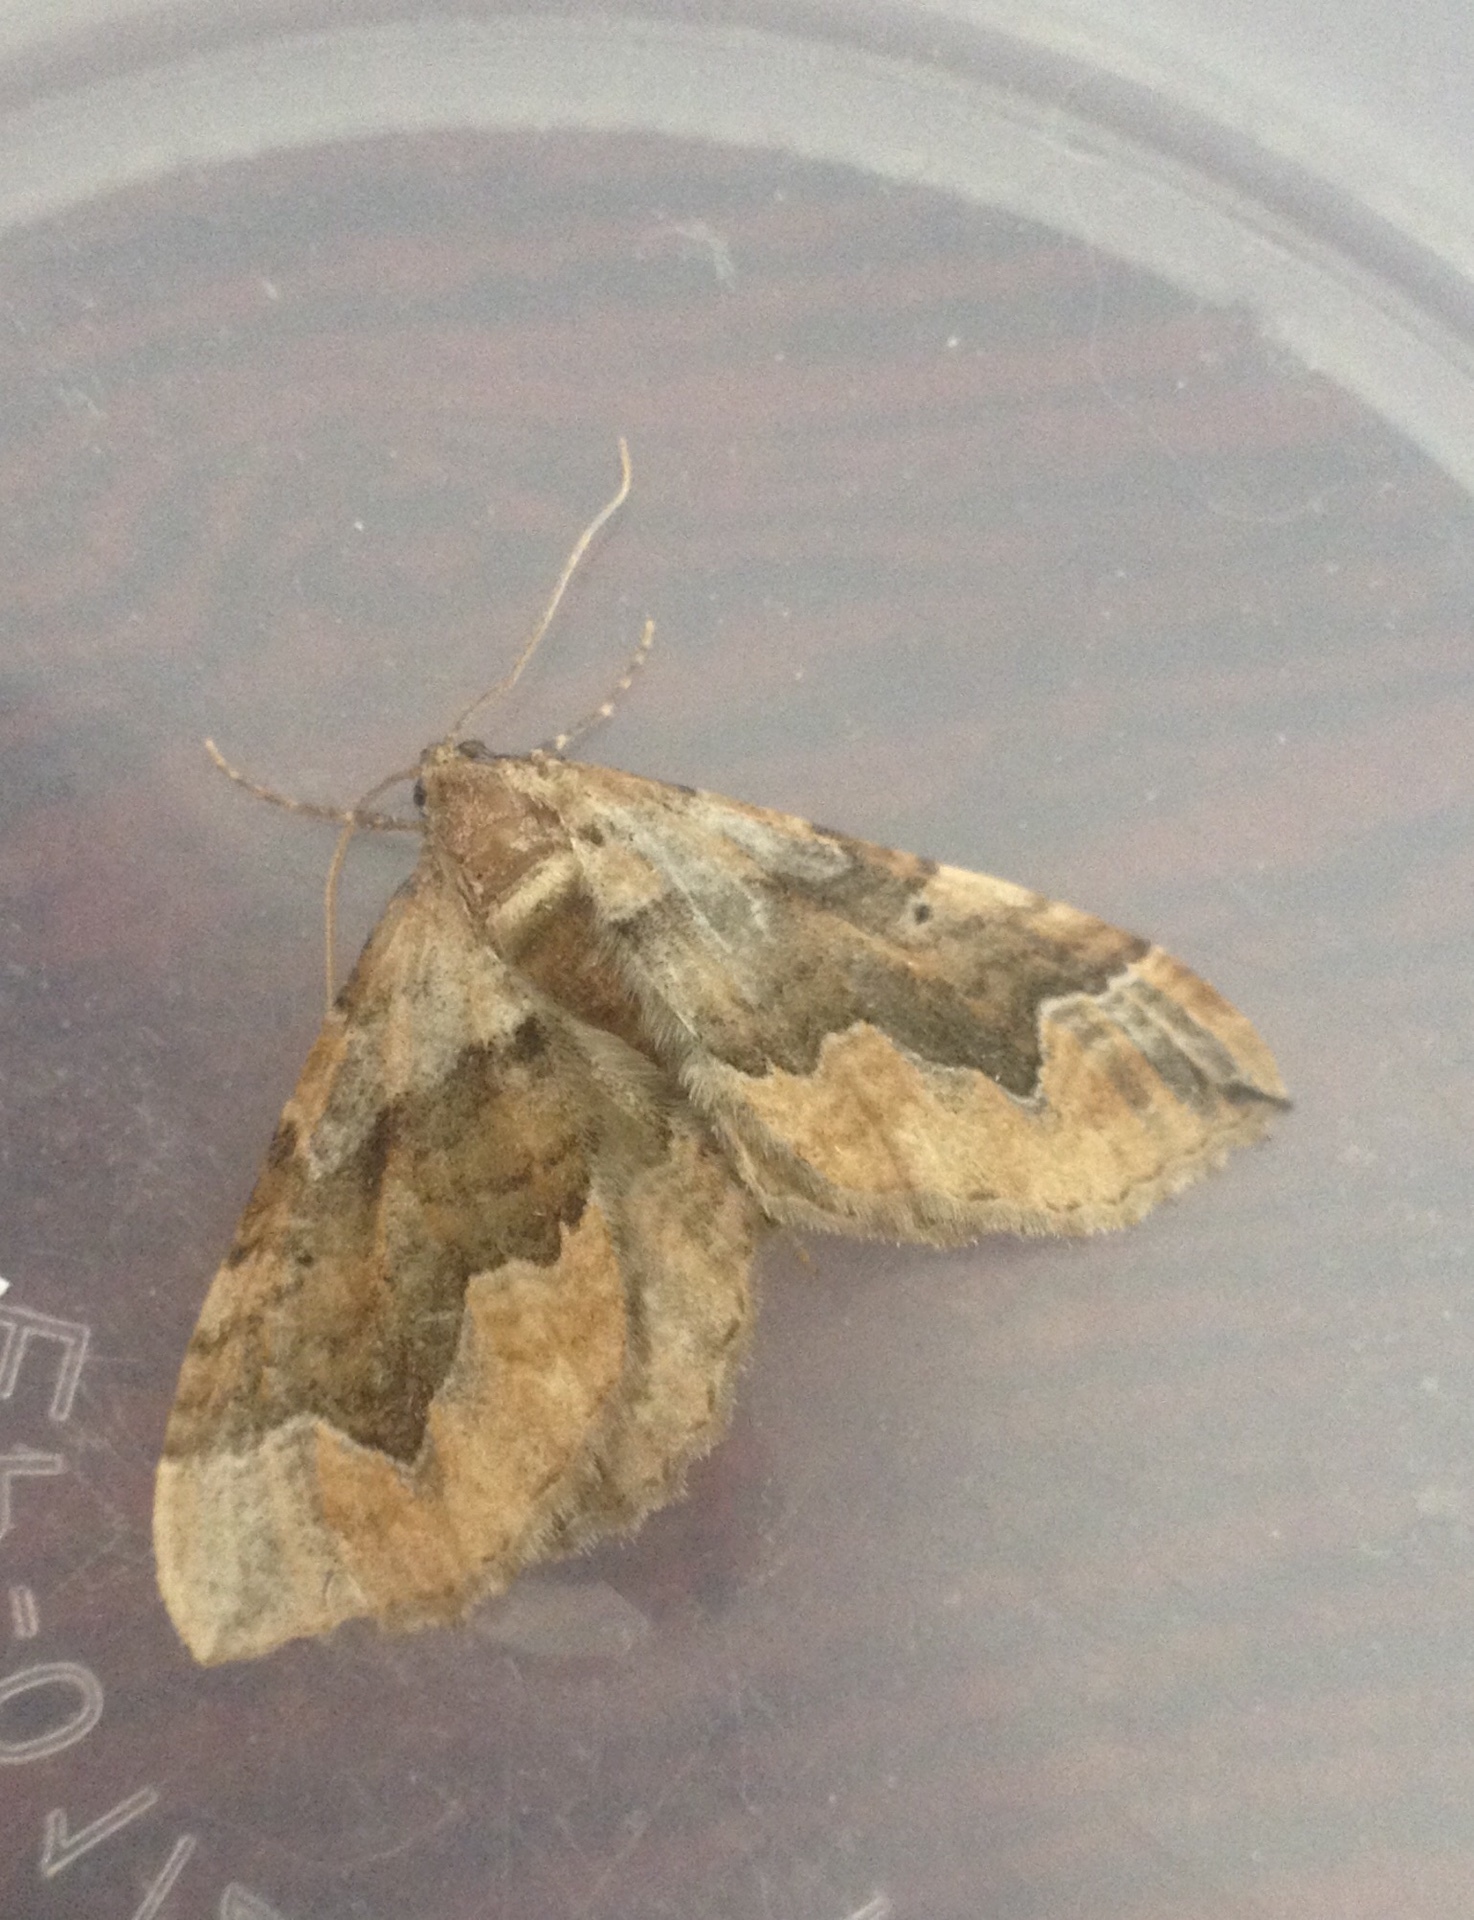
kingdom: Animalia
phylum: Arthropoda
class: Insecta
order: Lepidoptera
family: Geometridae
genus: Pelurga
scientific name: Pelurga comitata
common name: Dark spinach
